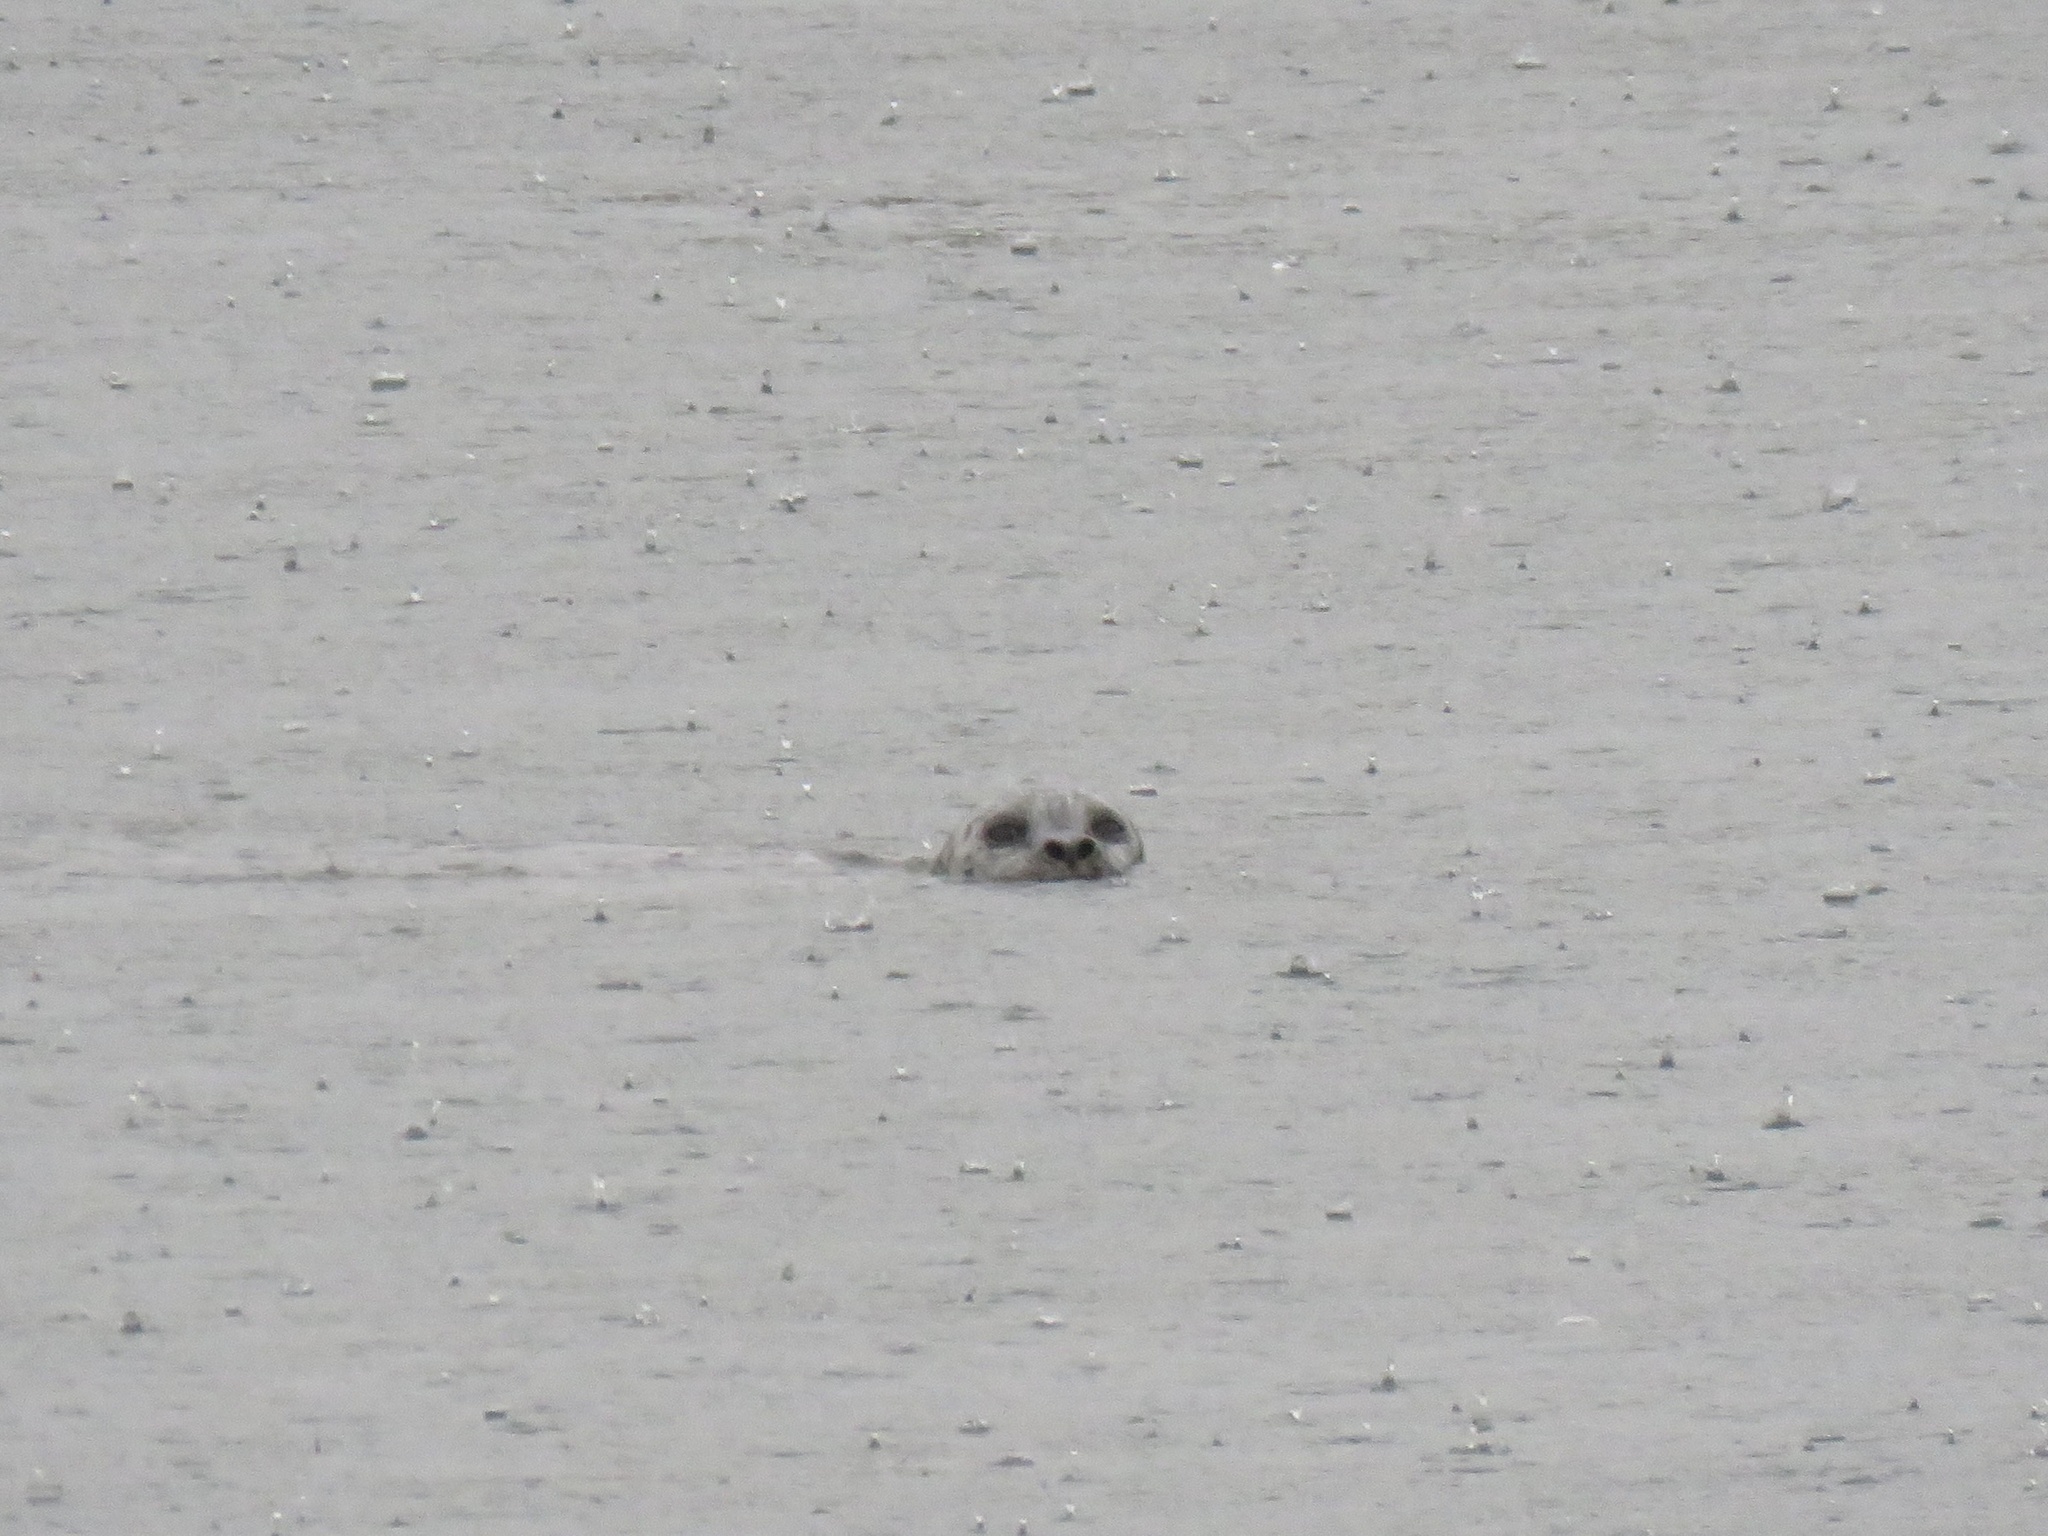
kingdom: Animalia
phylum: Chordata
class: Mammalia
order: Carnivora
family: Phocidae
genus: Phoca
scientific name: Phoca vitulina
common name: Harbor seal
